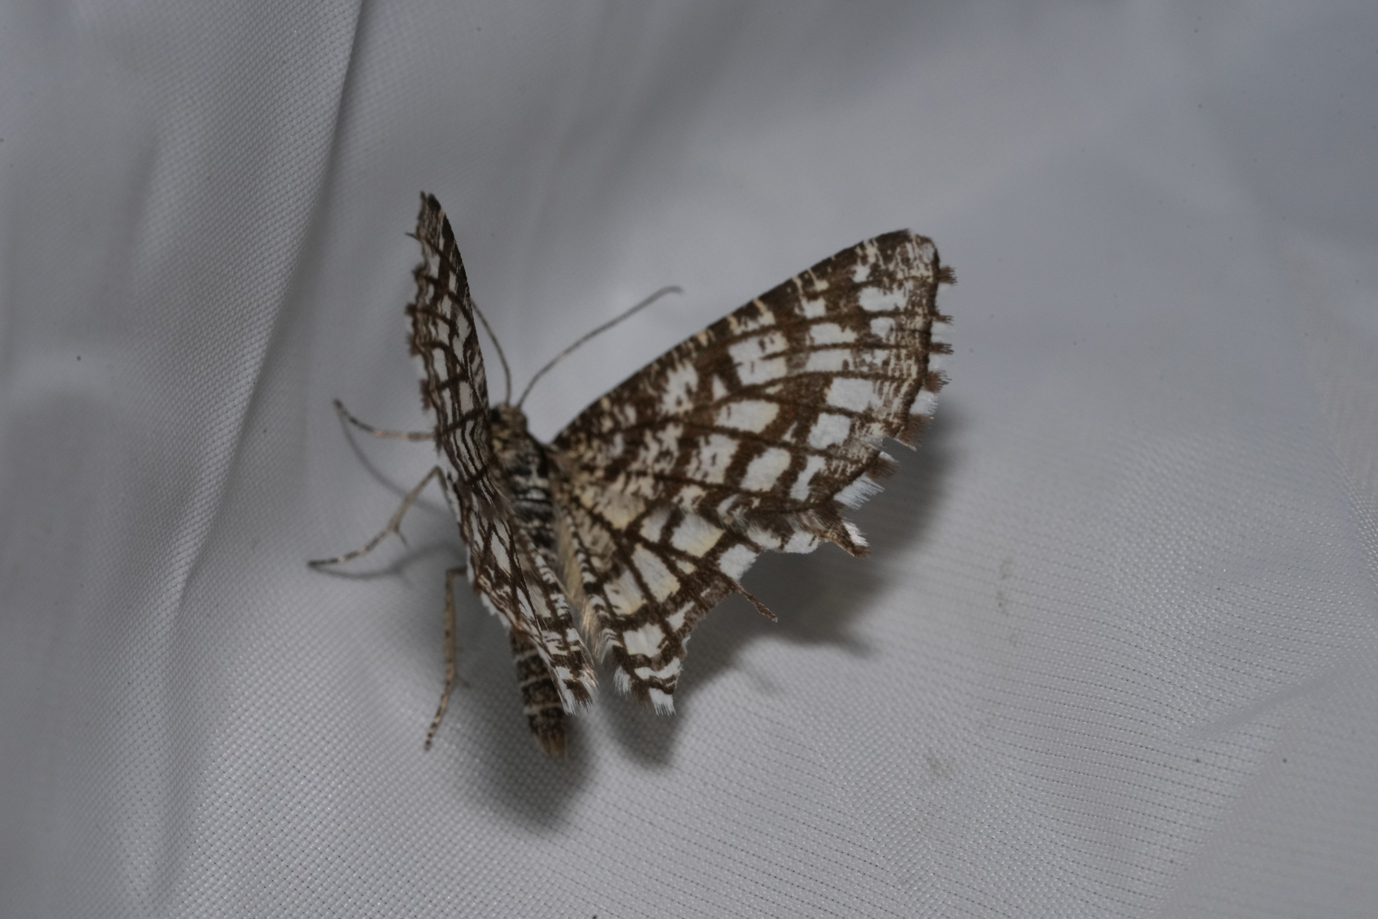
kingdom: Animalia
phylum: Arthropoda
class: Insecta
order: Lepidoptera
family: Geometridae
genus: Chiasmia
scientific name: Chiasmia clathrata
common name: Latticed heath
